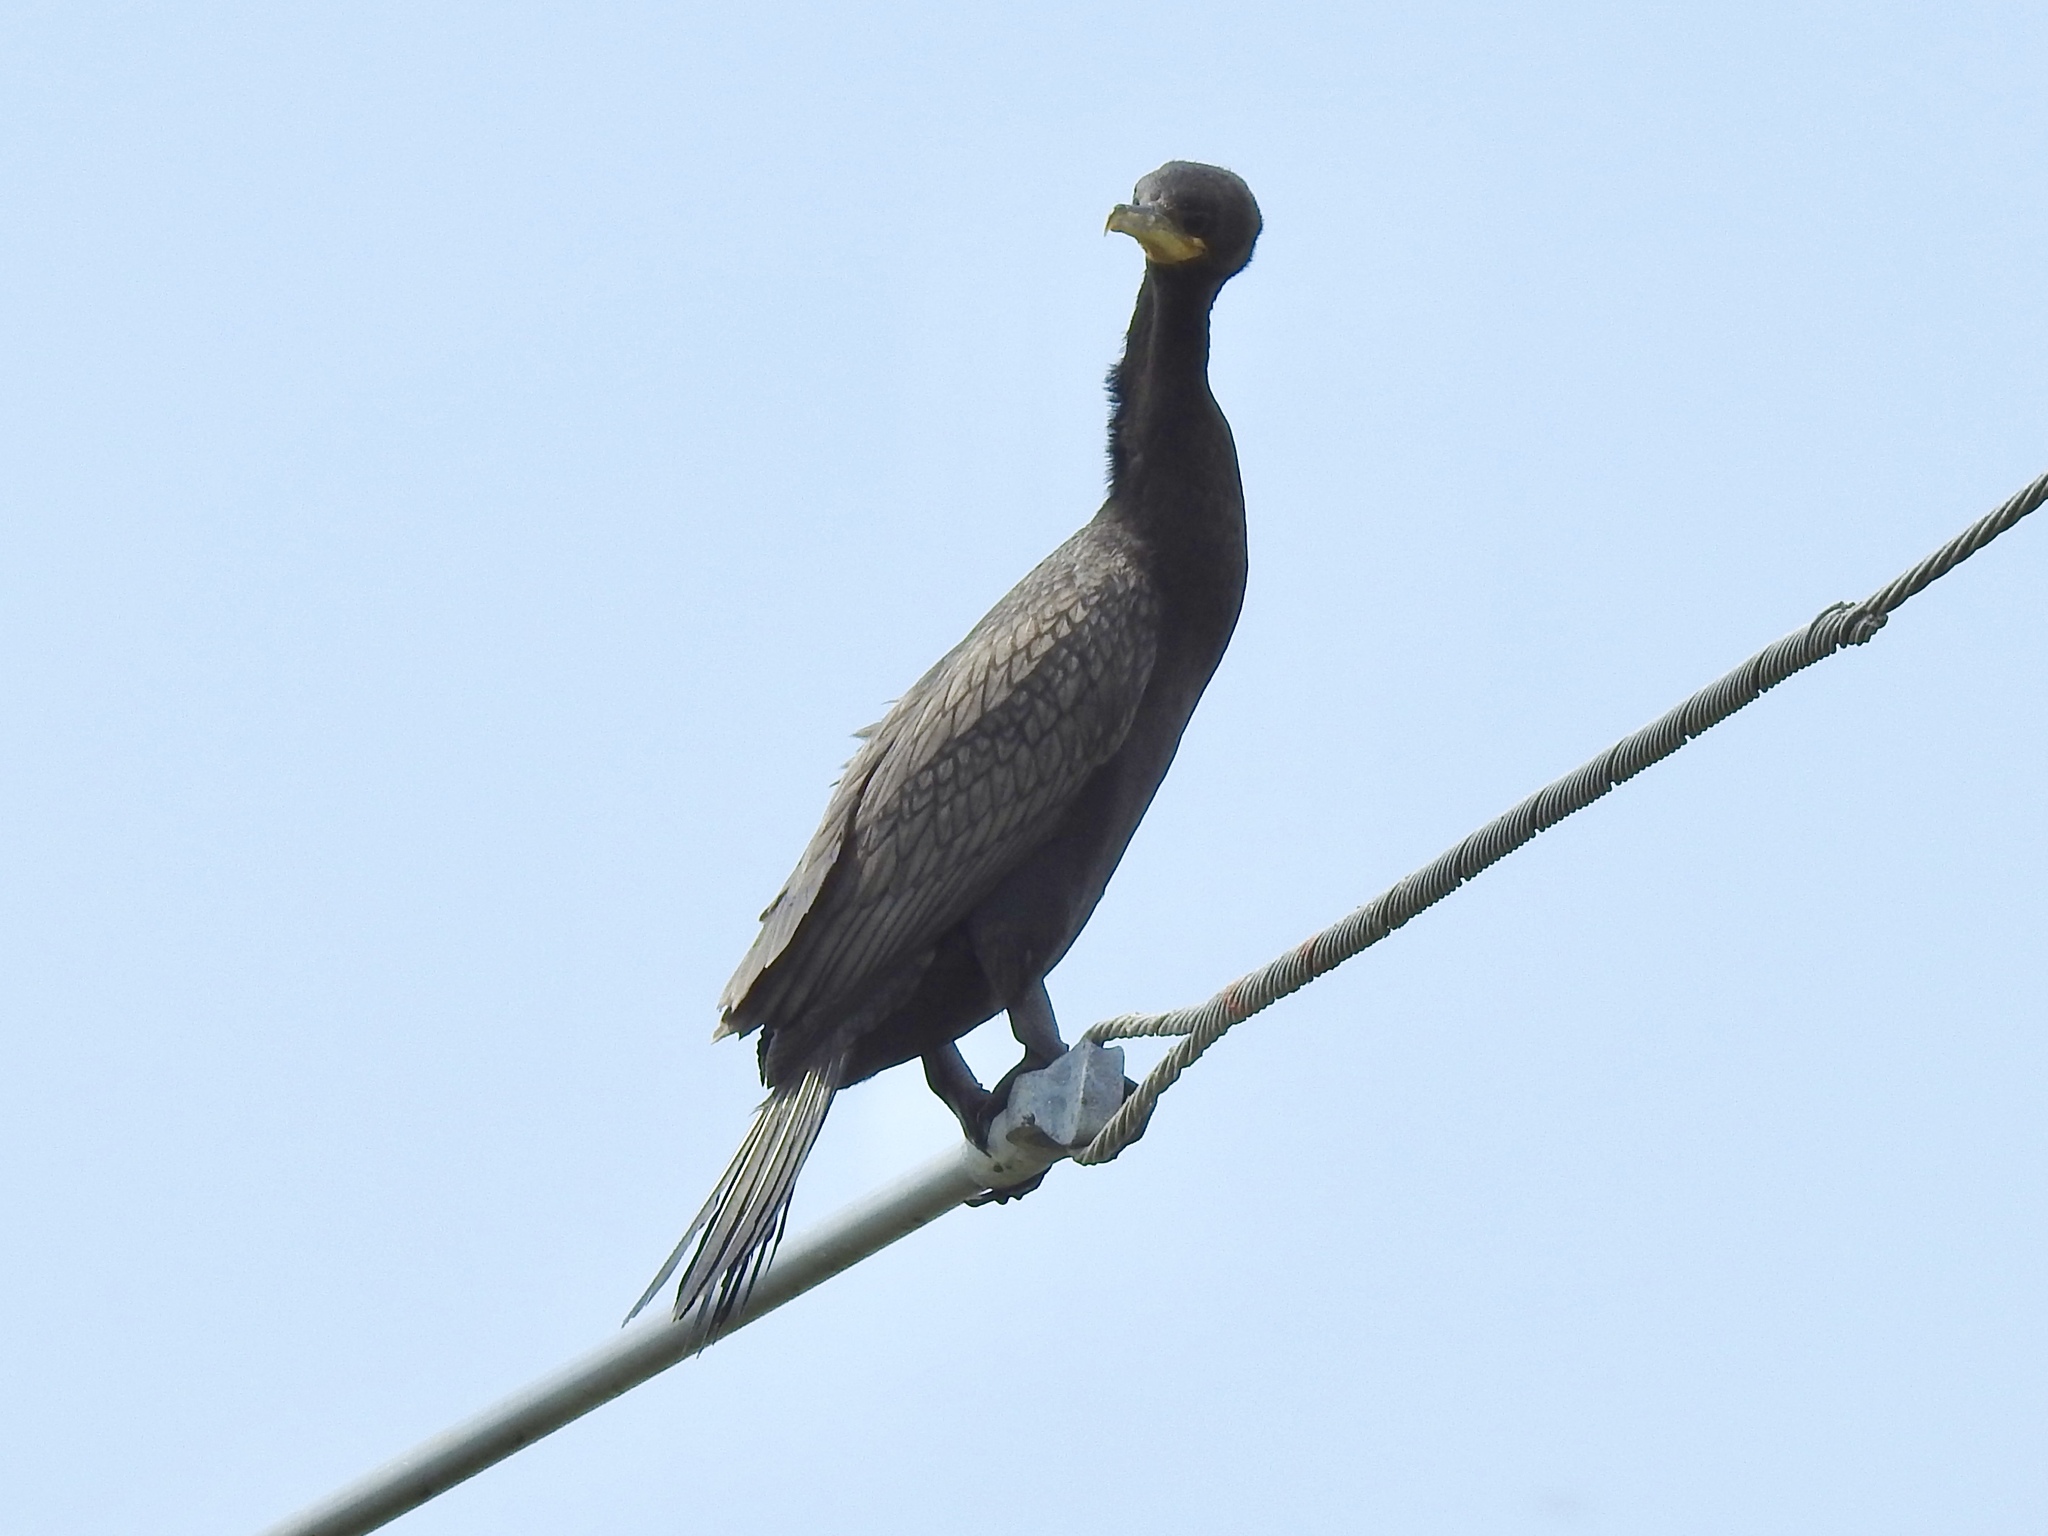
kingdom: Animalia
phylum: Chordata
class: Aves
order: Suliformes
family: Phalacrocoracidae
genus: Phalacrocorax
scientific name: Phalacrocorax brasilianus
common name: Neotropic cormorant
